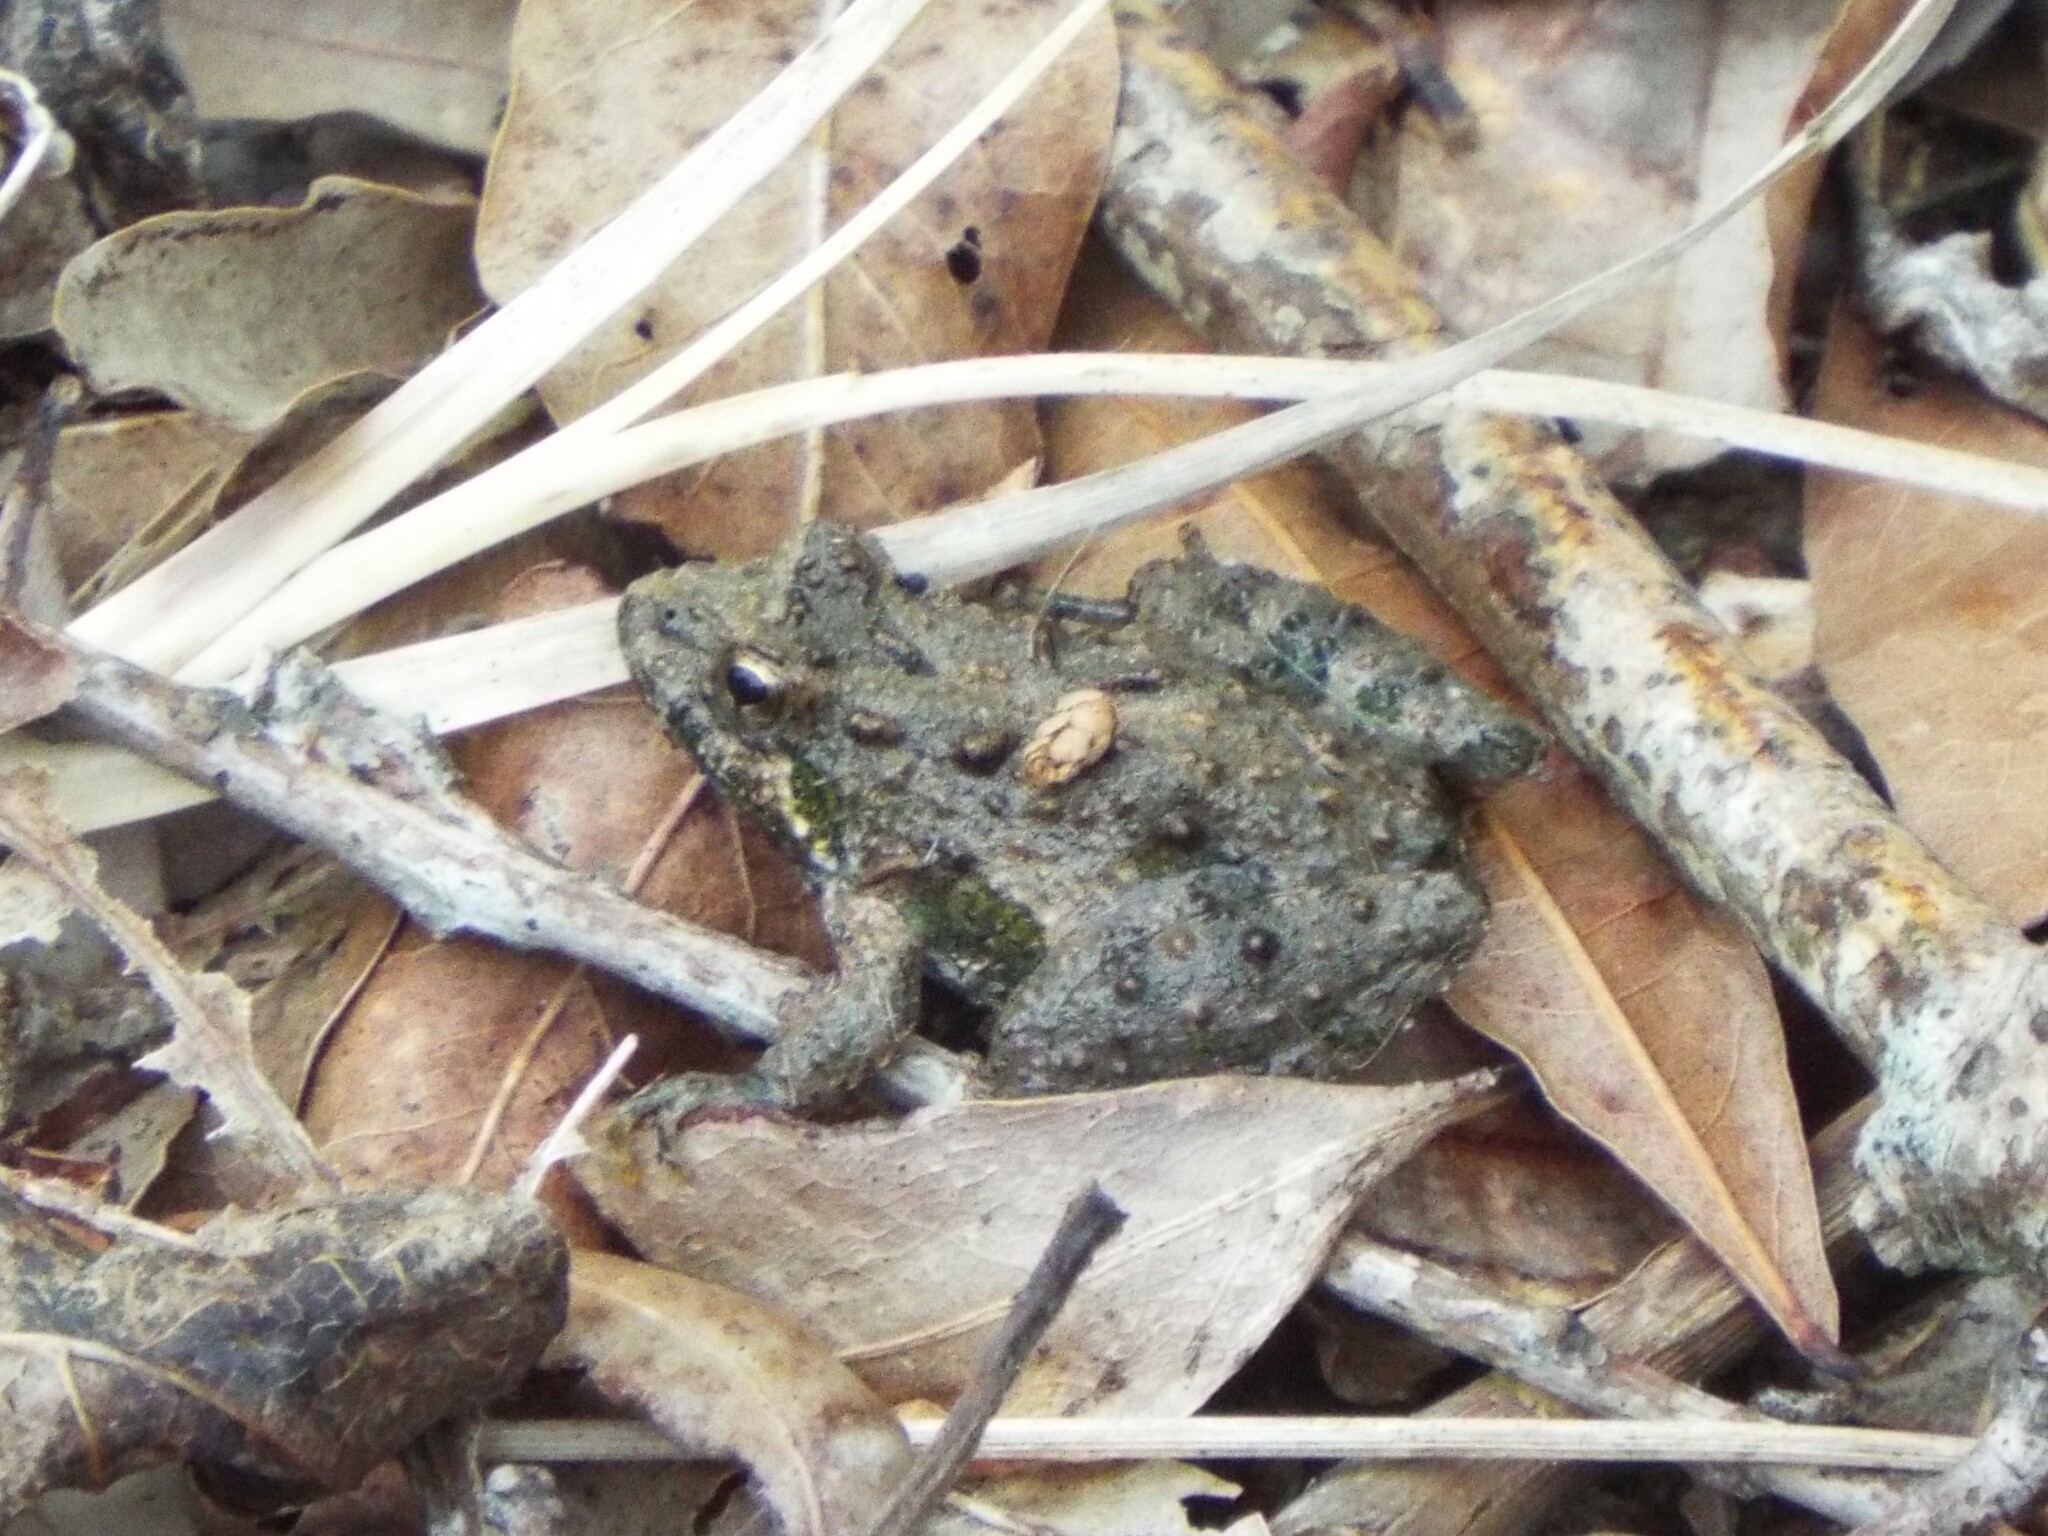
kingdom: Animalia
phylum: Chordata
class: Amphibia
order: Anura
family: Hylidae
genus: Acris
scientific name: Acris crepitans
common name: Northern cricket frog
